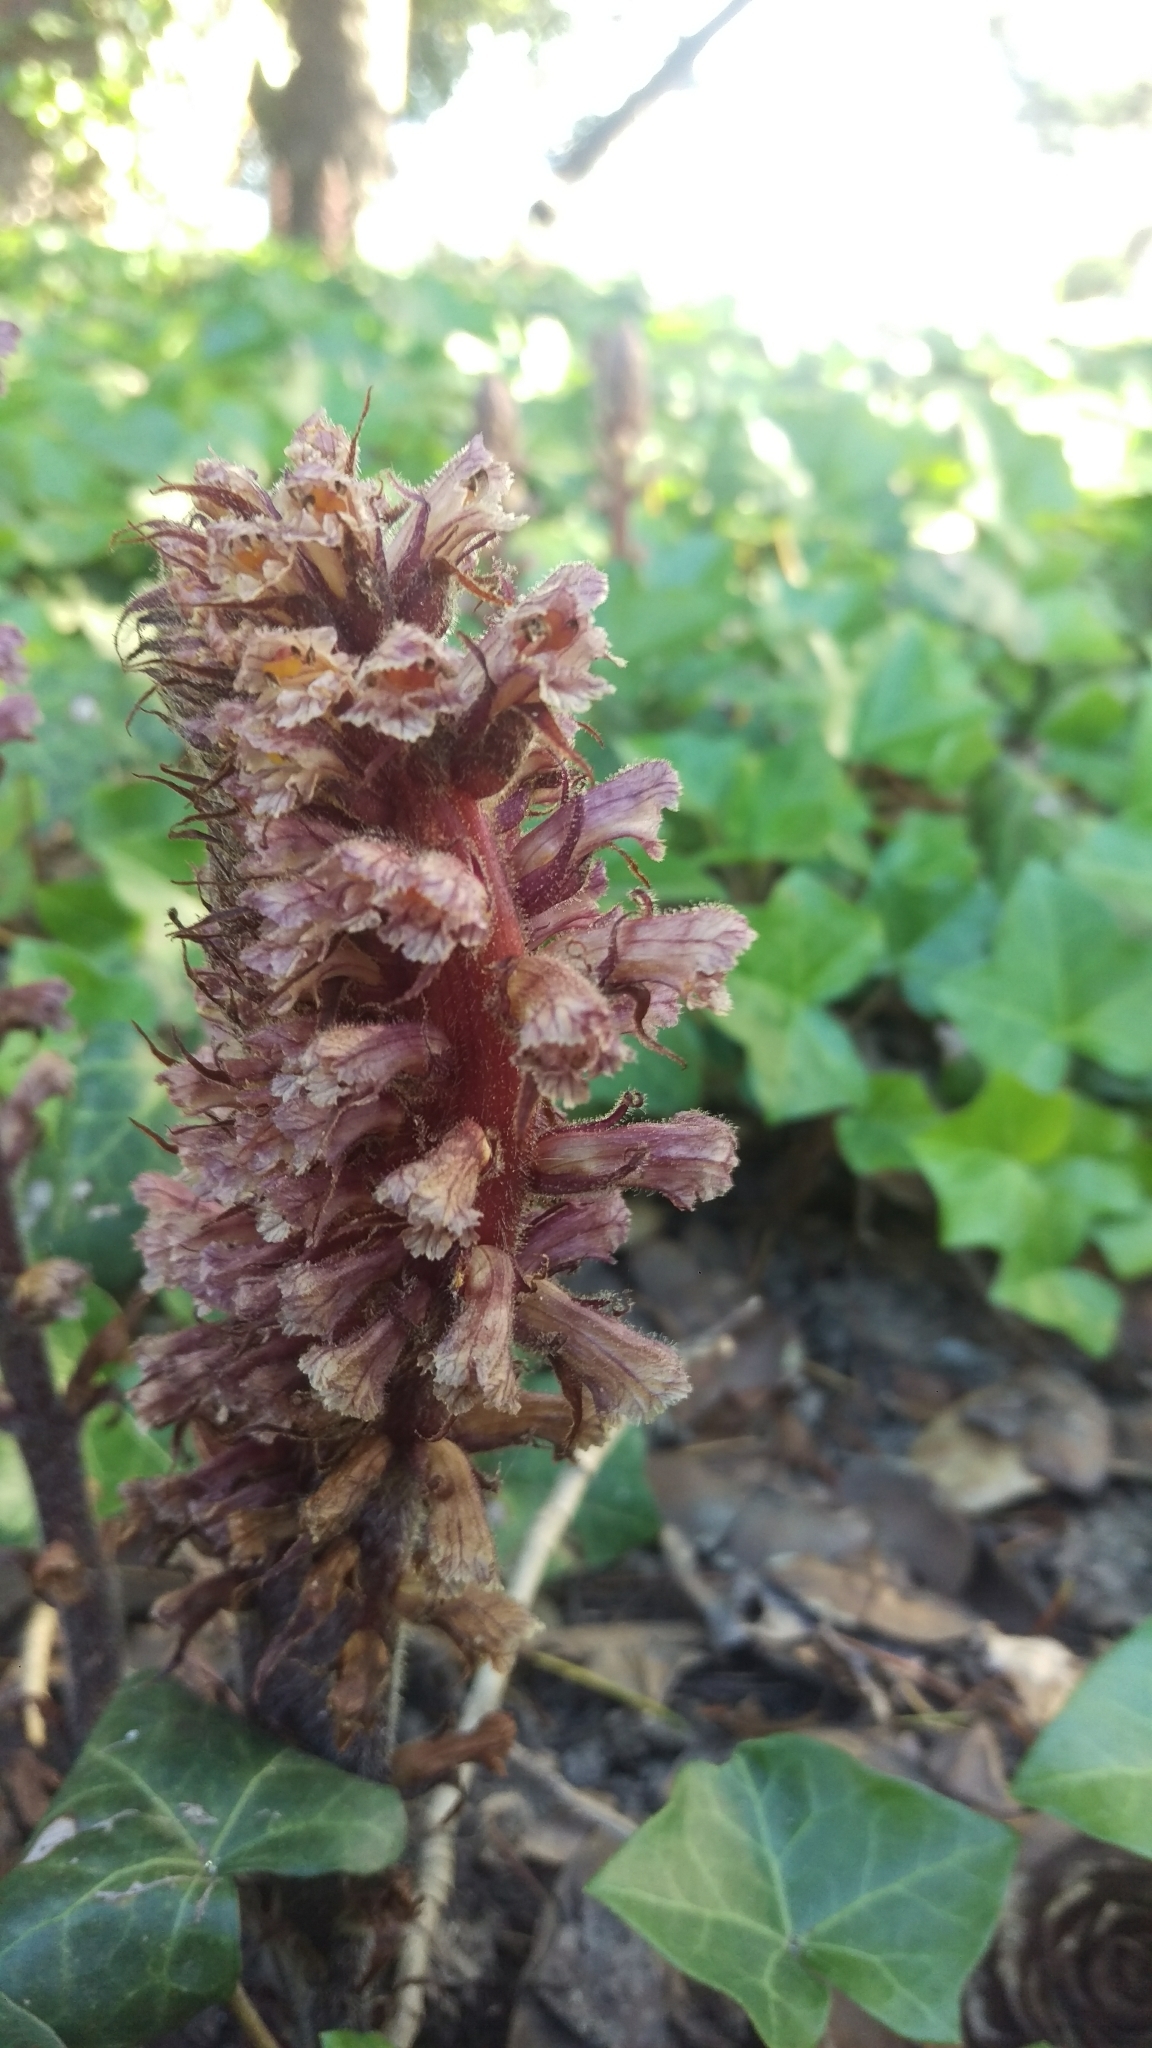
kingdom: Plantae
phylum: Tracheophyta
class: Magnoliopsida
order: Lamiales
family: Orobanchaceae
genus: Orobanche
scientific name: Orobanche hederae
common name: Ivy broomrape
